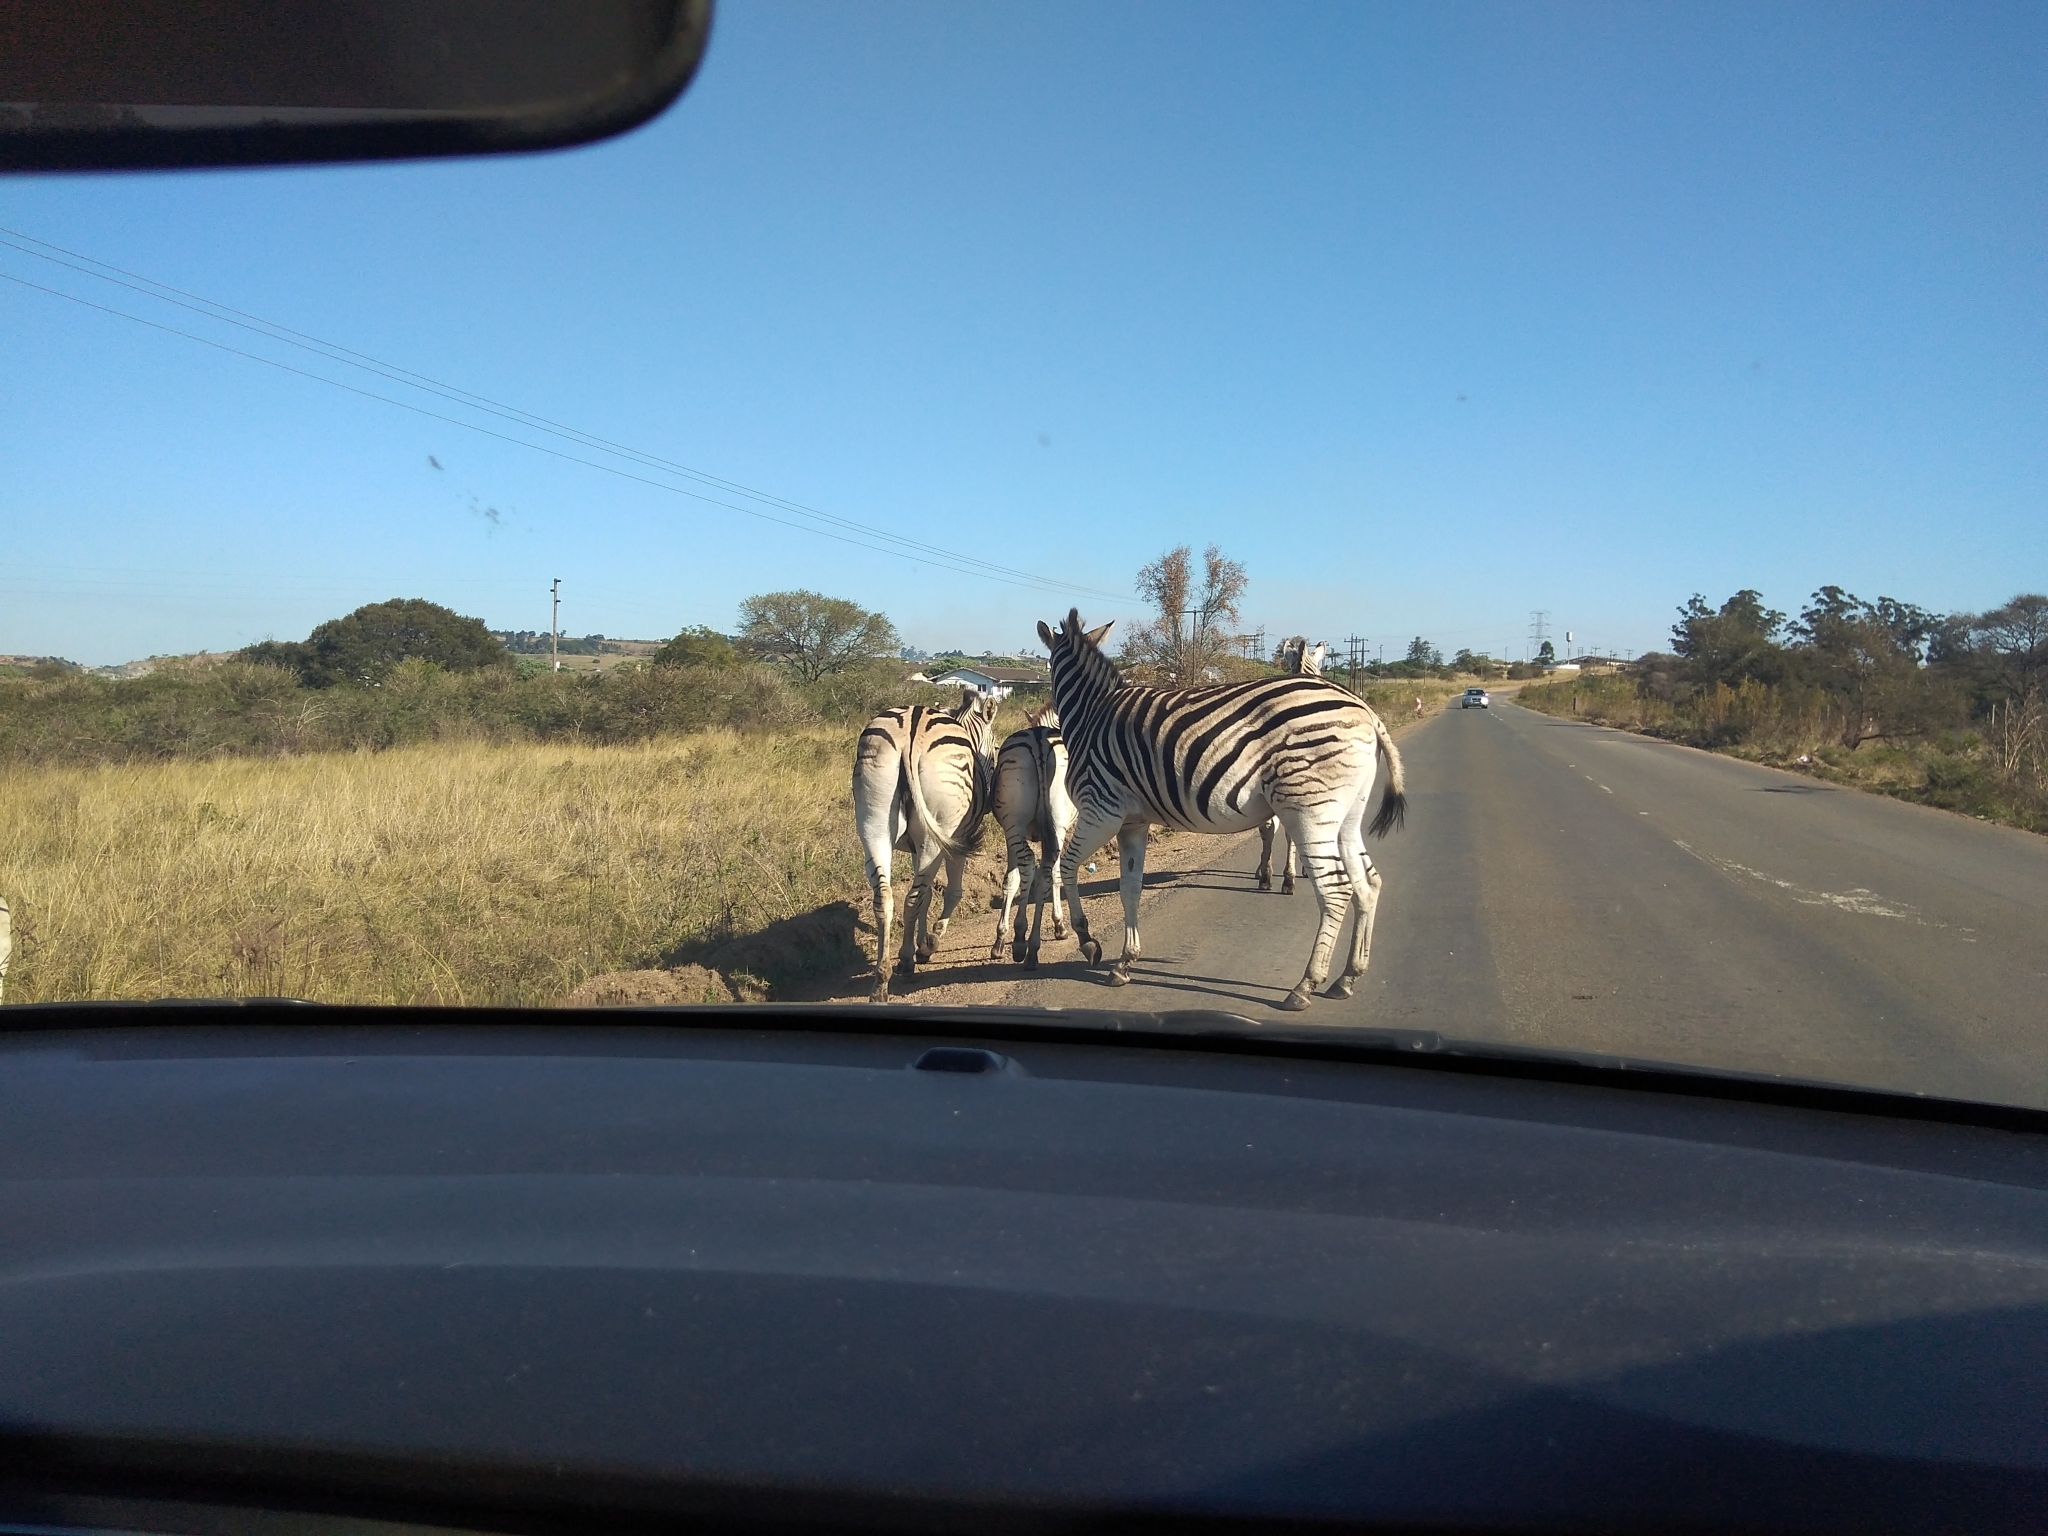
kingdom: Animalia
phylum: Chordata
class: Mammalia
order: Perissodactyla
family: Equidae
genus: Equus
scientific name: Equus quagga
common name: Plains zebra
